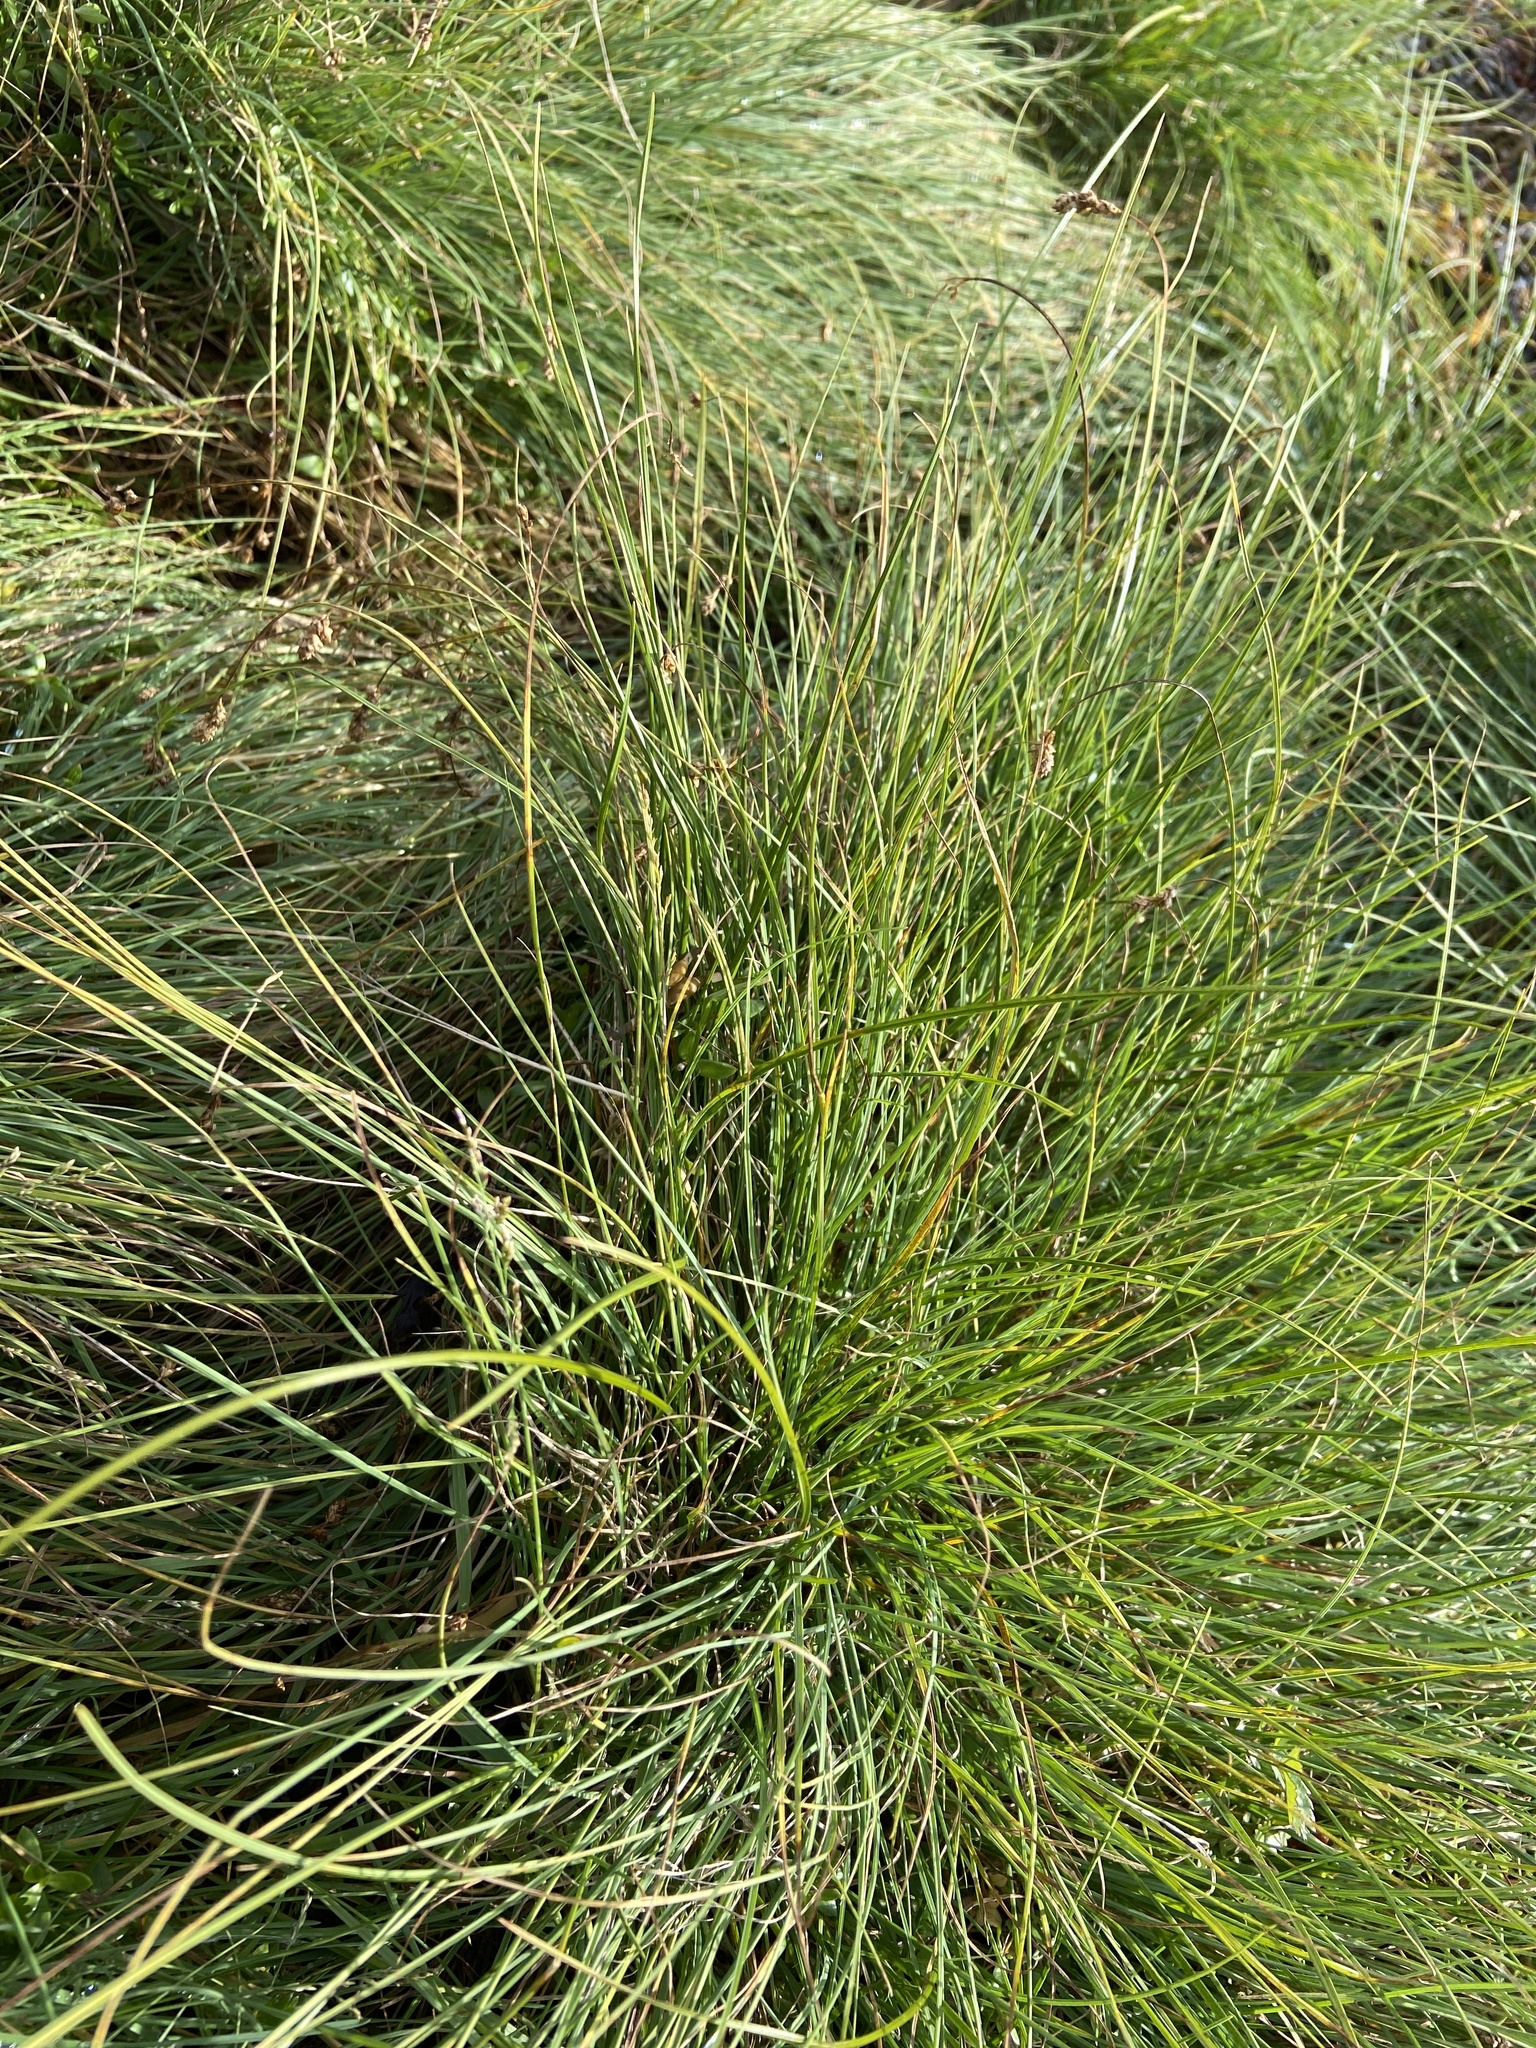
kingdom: Plantae
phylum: Tracheophyta
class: Liliopsida
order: Poales
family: Cyperaceae
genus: Carex
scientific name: Carex glareosa
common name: Clustered sedge
